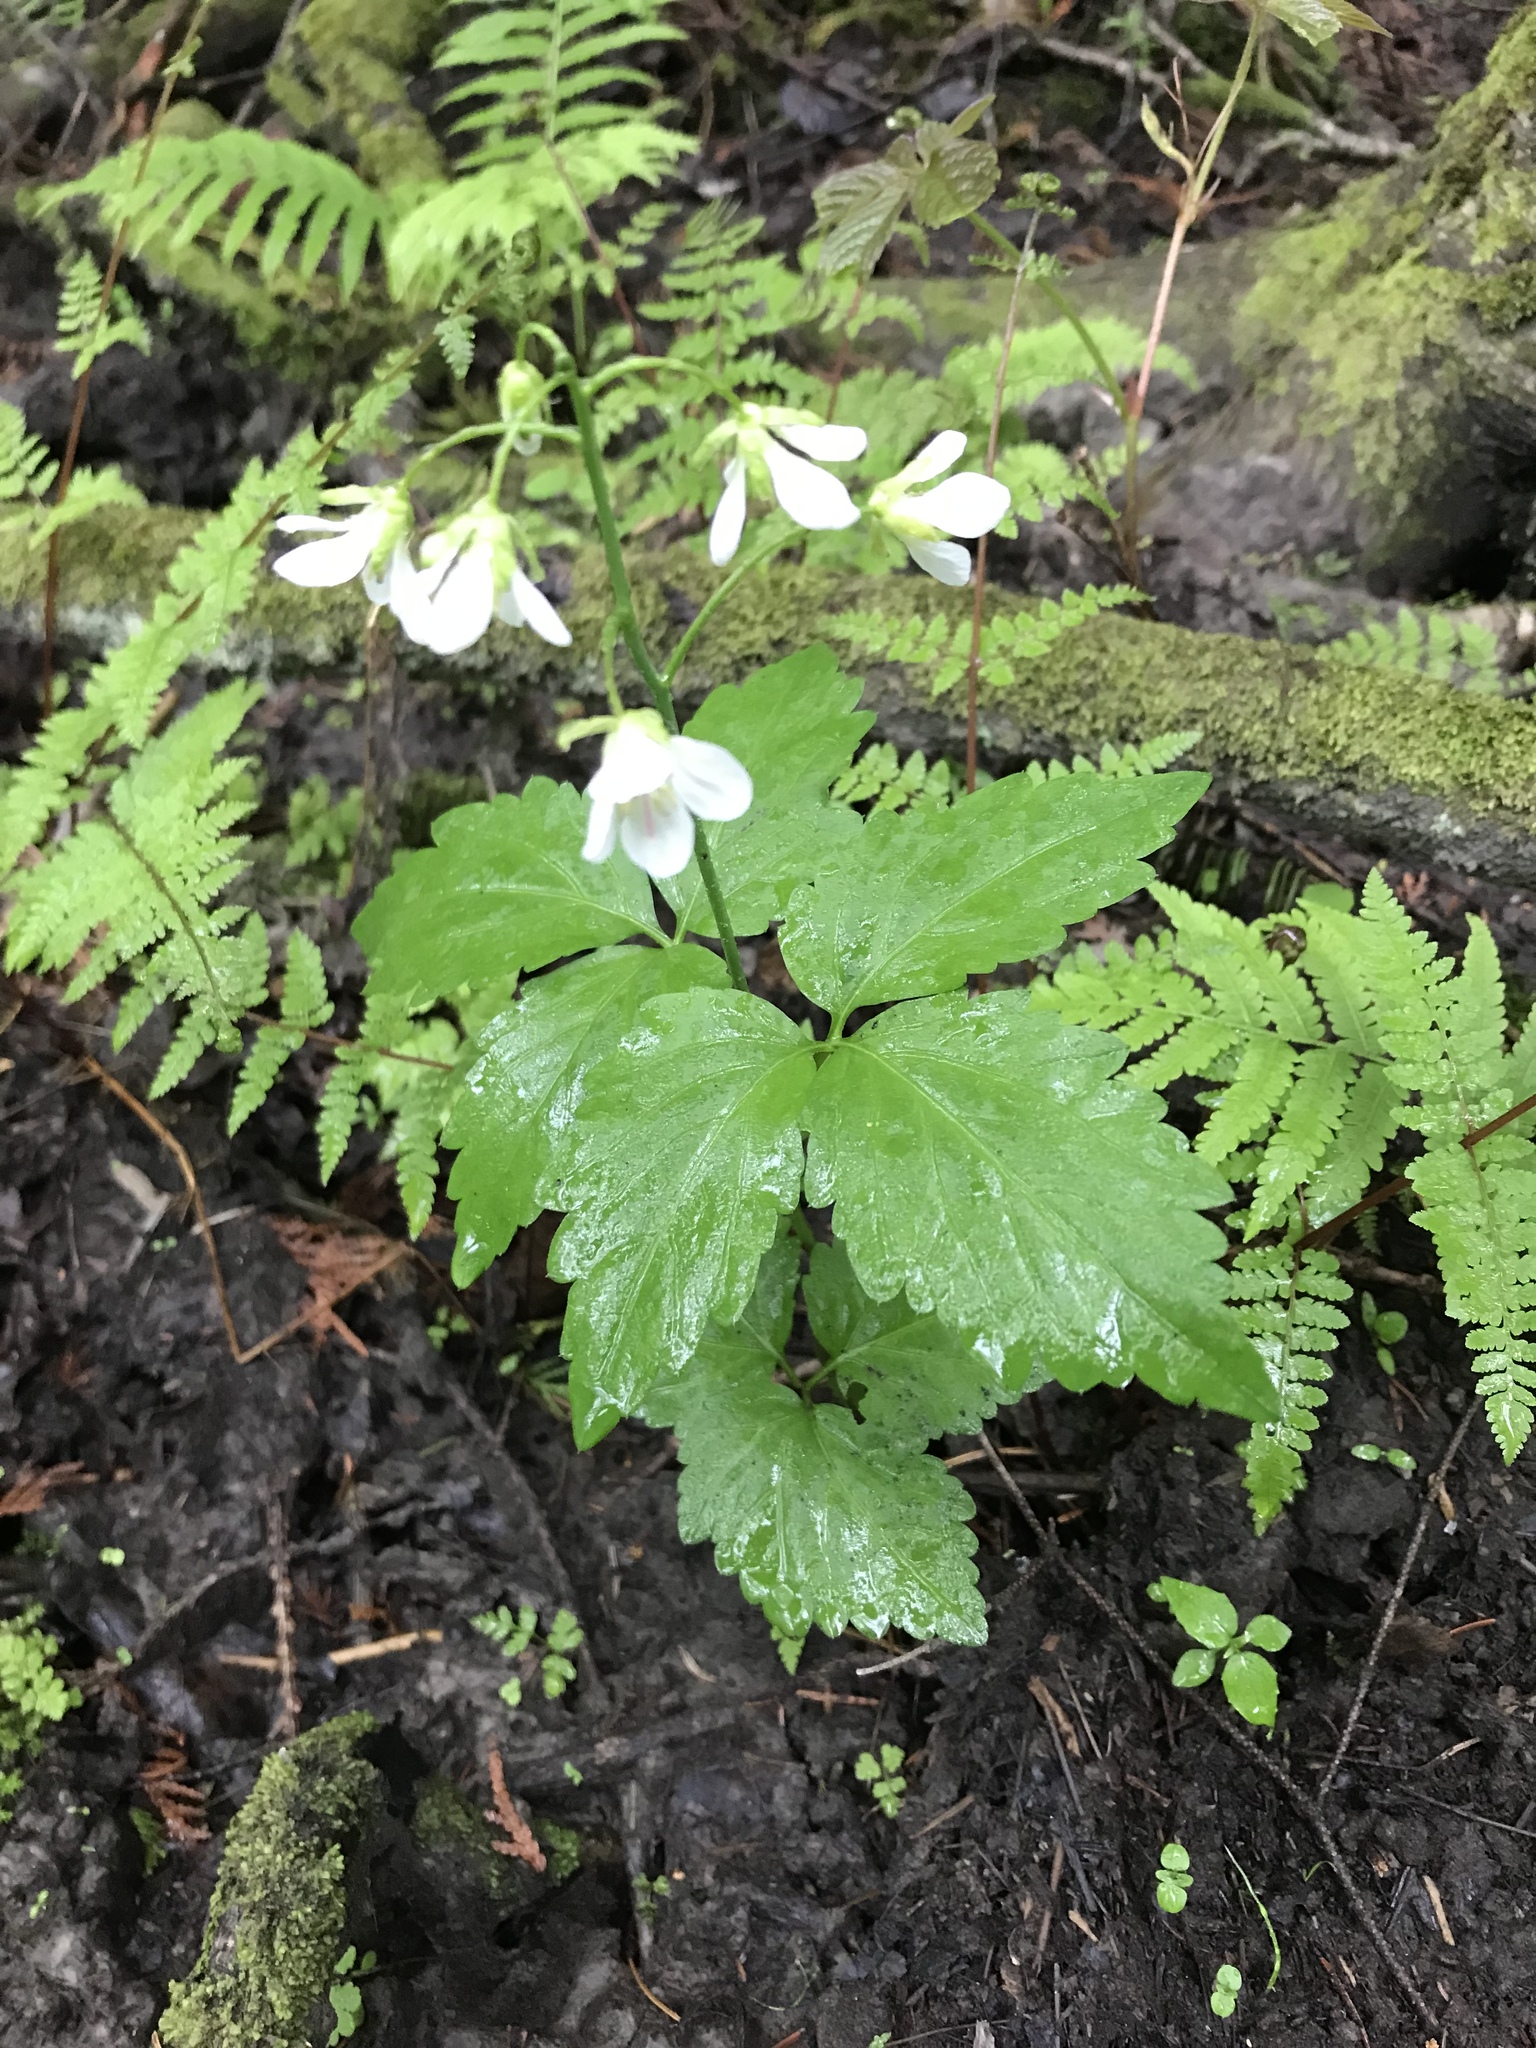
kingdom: Plantae
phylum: Tracheophyta
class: Magnoliopsida
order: Brassicales
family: Brassicaceae
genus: Cardamine
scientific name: Cardamine diphylla
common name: Broad-leaved toothwort
